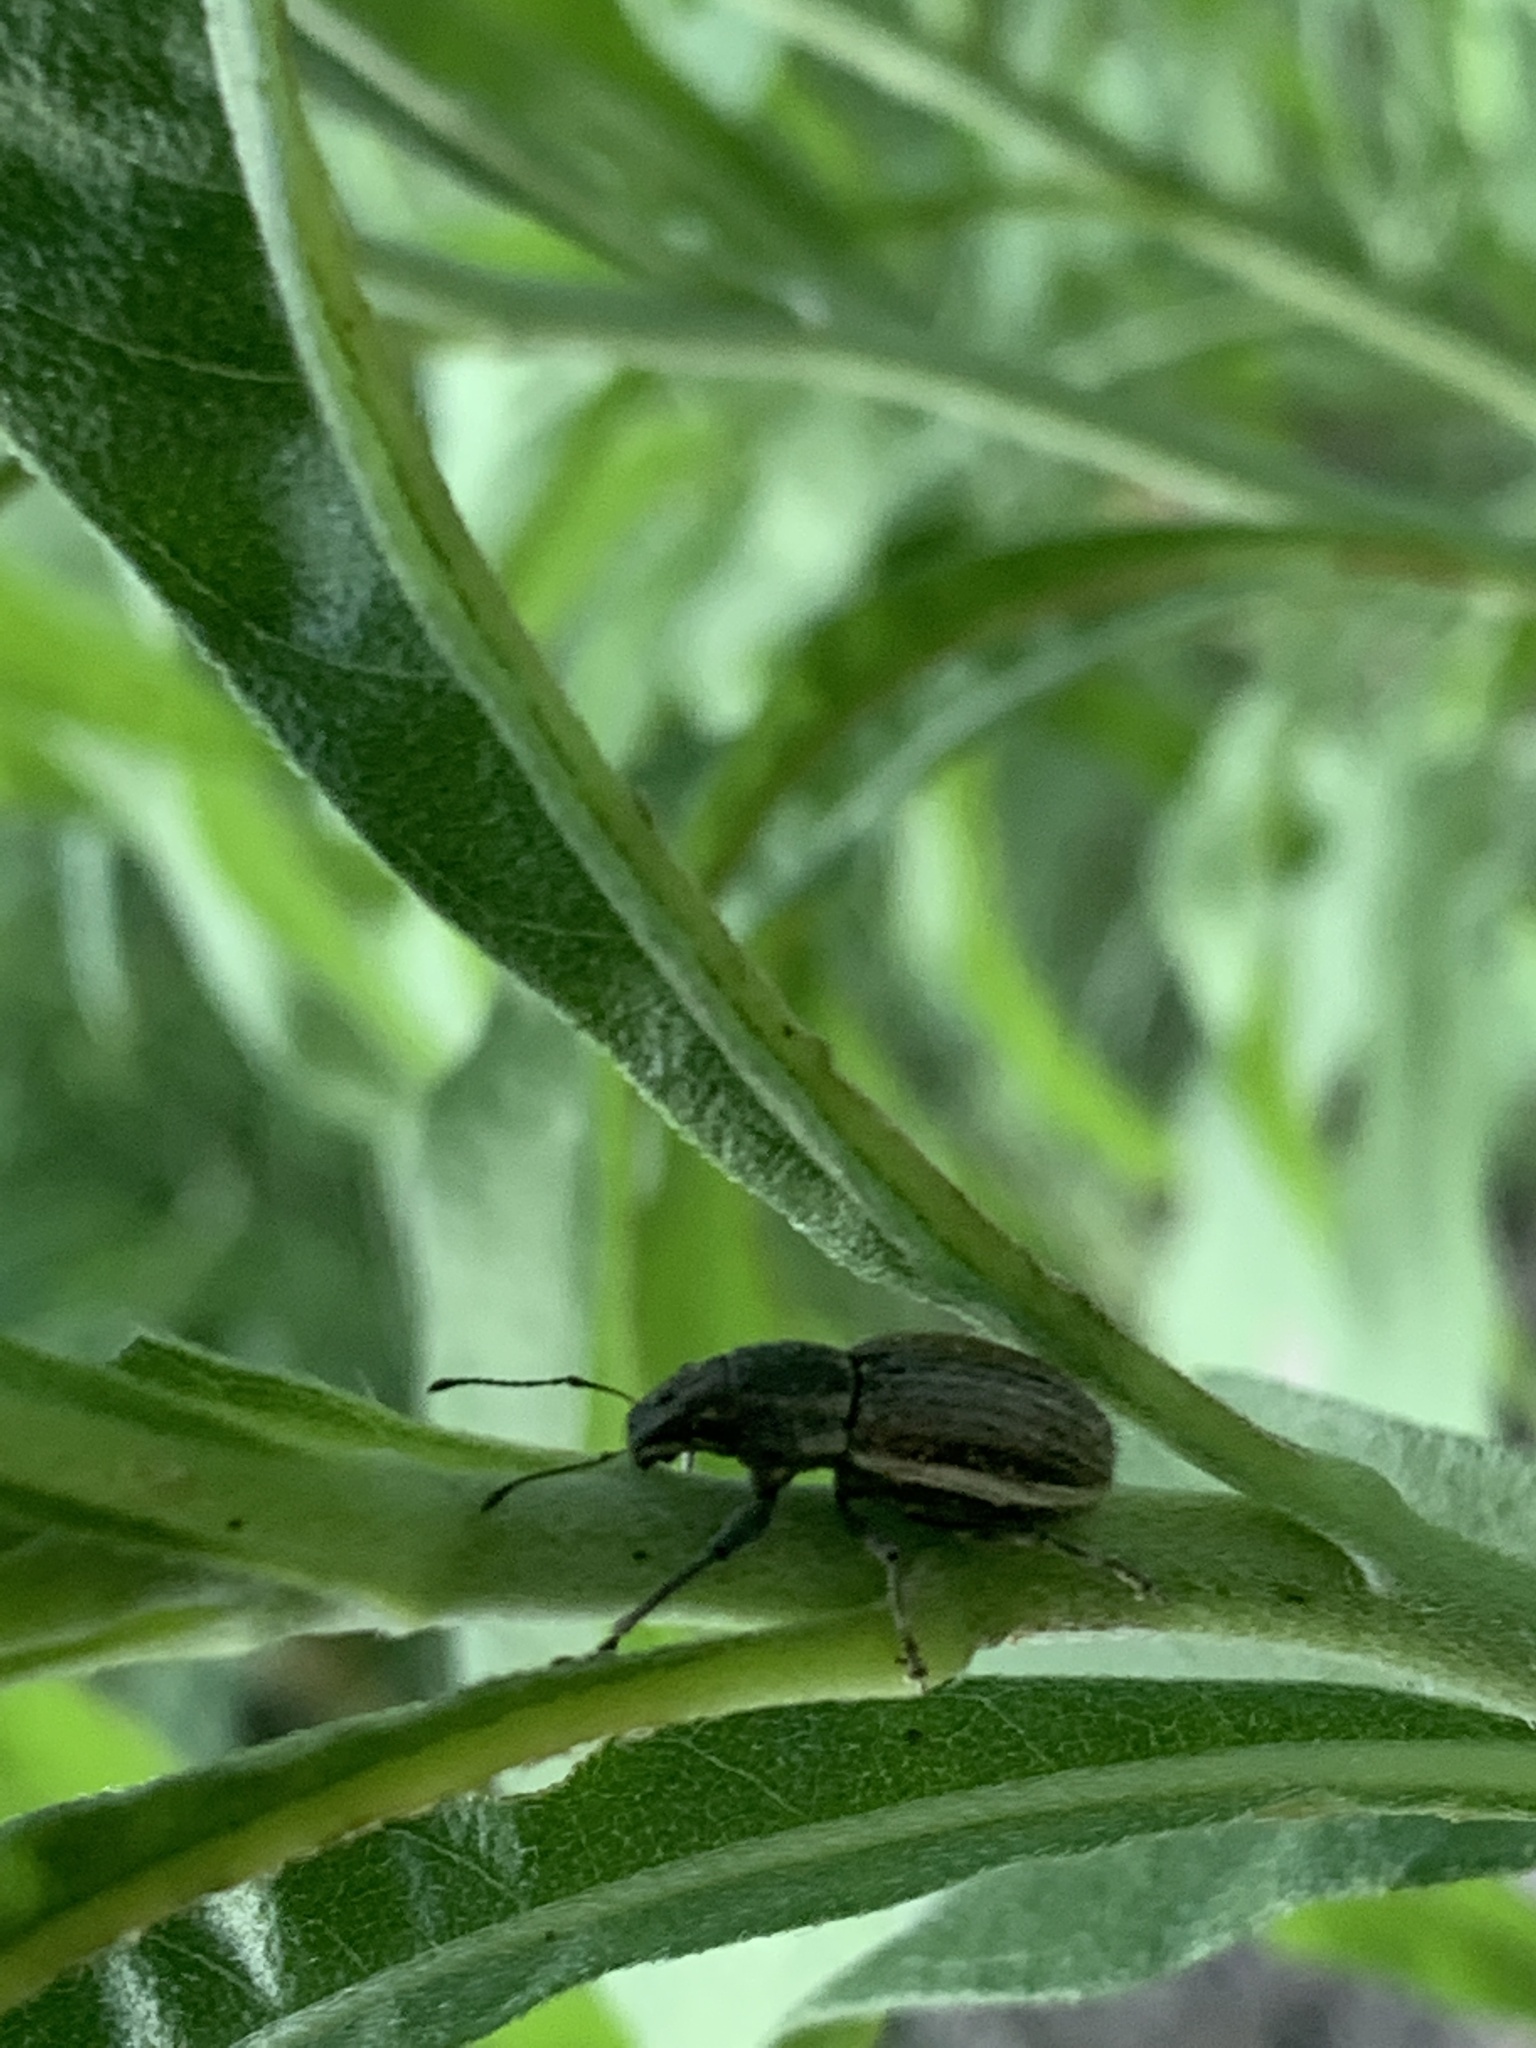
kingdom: Animalia
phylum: Arthropoda
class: Insecta
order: Coleoptera
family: Curculionidae
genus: Naupactus
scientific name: Naupactus leucoloma
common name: Whitefringed beetle
